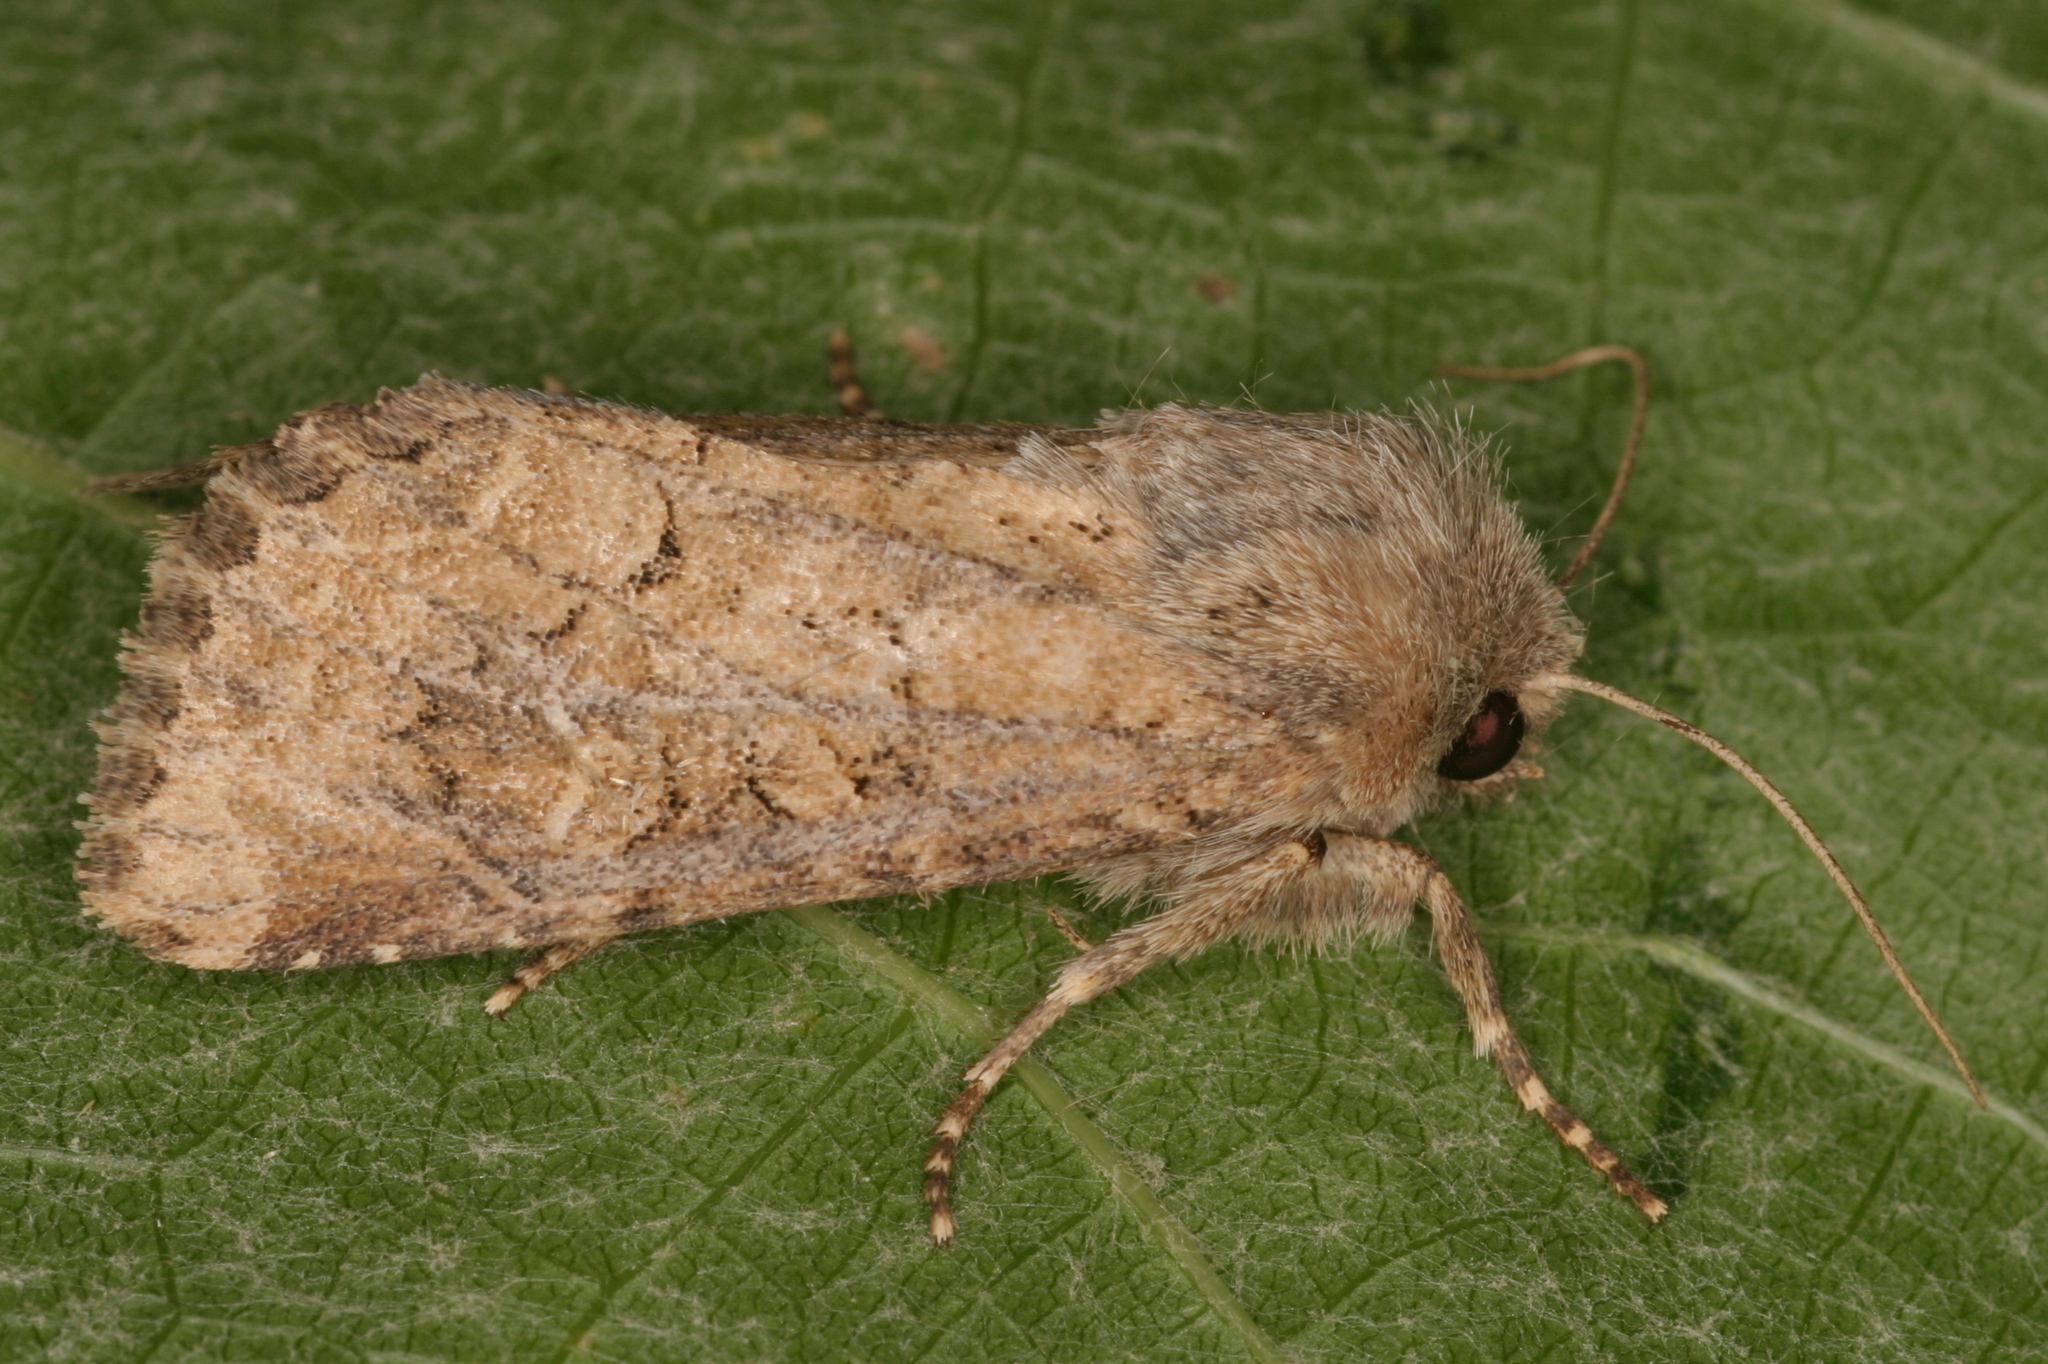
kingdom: Animalia
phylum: Arthropoda
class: Insecta
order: Lepidoptera
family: Noctuidae
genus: Luperina
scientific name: Luperina testacea
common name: Flounced rustic
